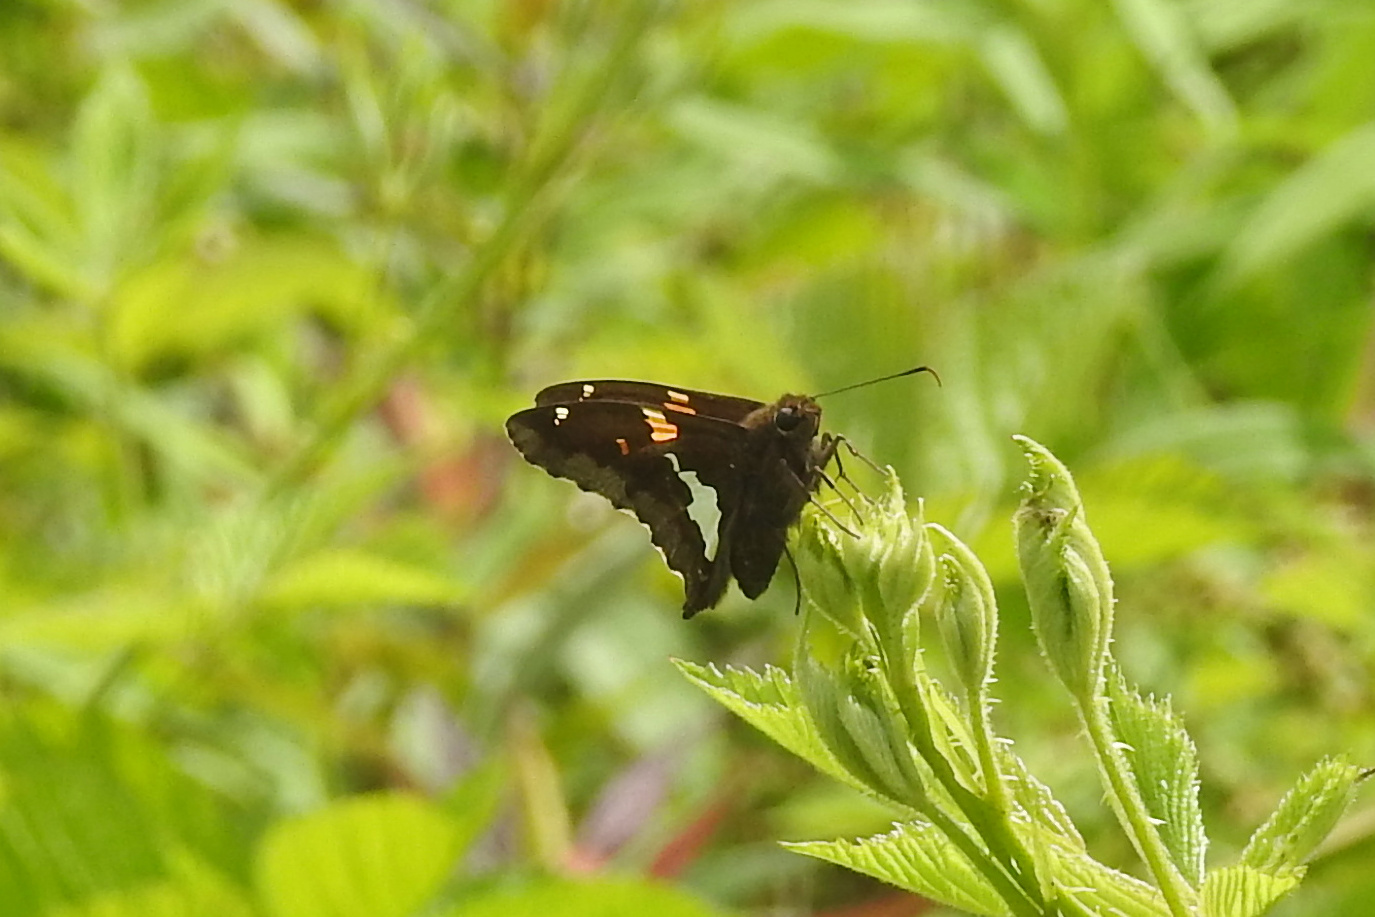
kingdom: Animalia
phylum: Arthropoda
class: Insecta
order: Lepidoptera
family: Hesperiidae
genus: Epargyreus
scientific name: Epargyreus clarus
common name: Silver-spotted skipper
